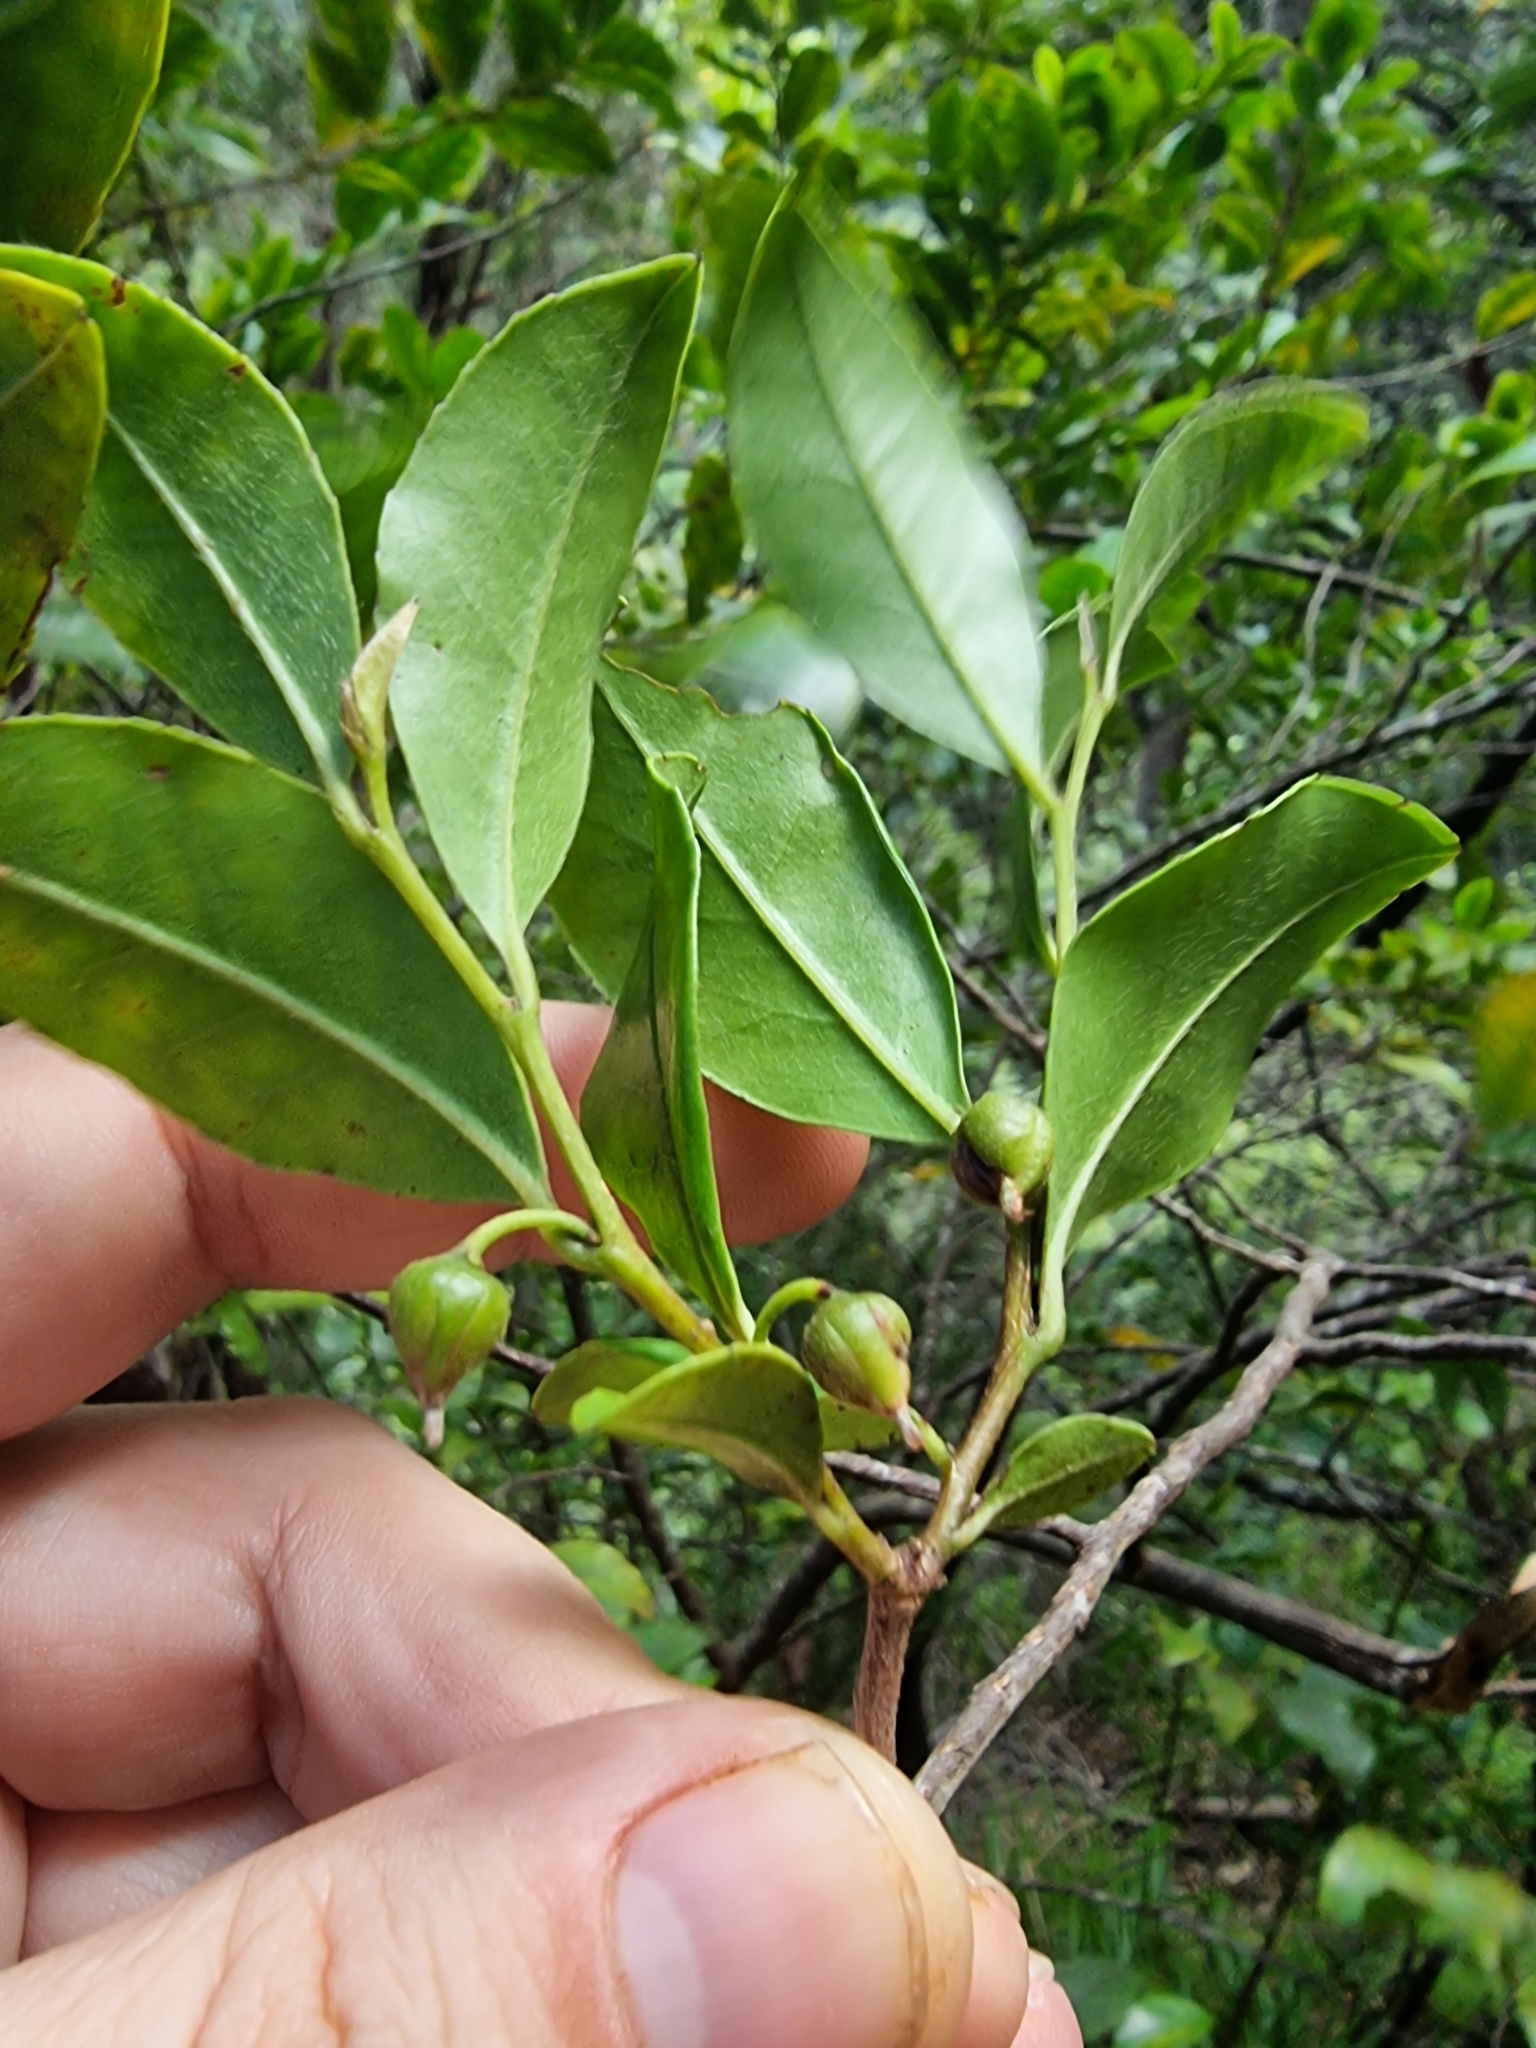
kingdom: Plantae
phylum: Tracheophyta
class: Magnoliopsida
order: Ericales
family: Pentaphylacaceae
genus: Visnea
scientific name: Visnea mocanera
